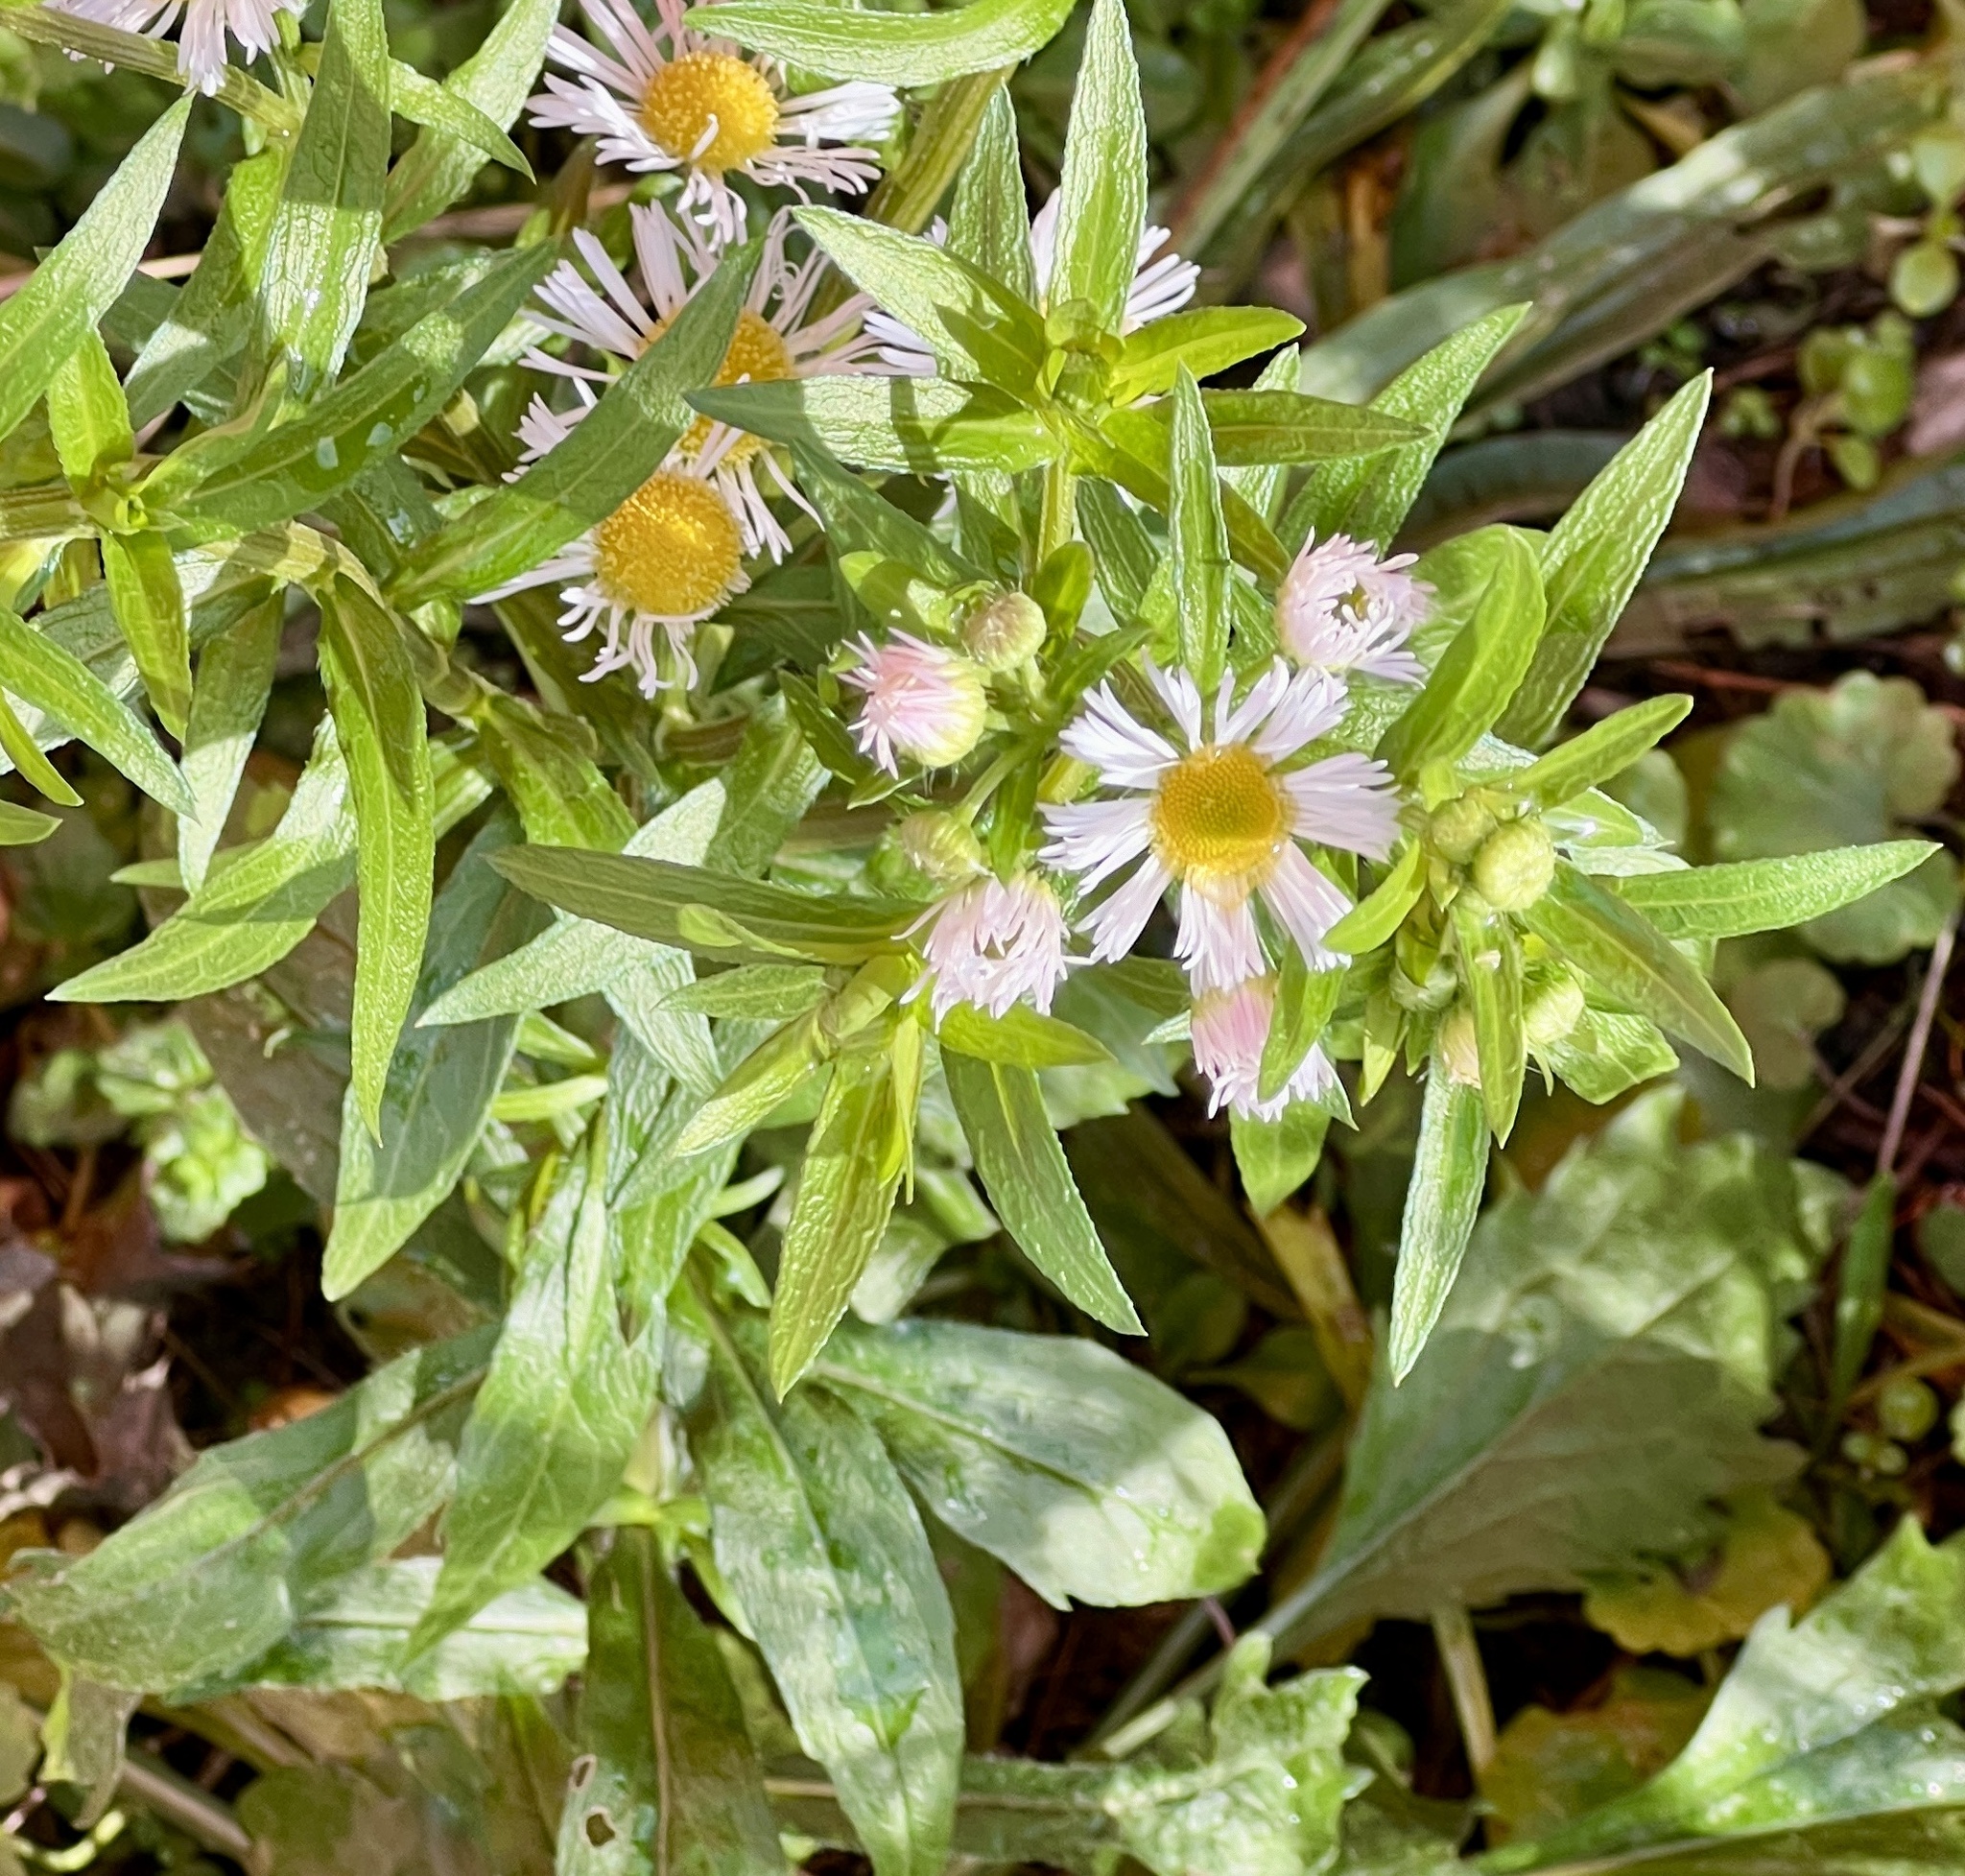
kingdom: Plantae
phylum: Tracheophyta
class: Magnoliopsida
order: Asterales
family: Asteraceae
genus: Erigeron
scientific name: Erigeron annuus
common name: Tall fleabane
